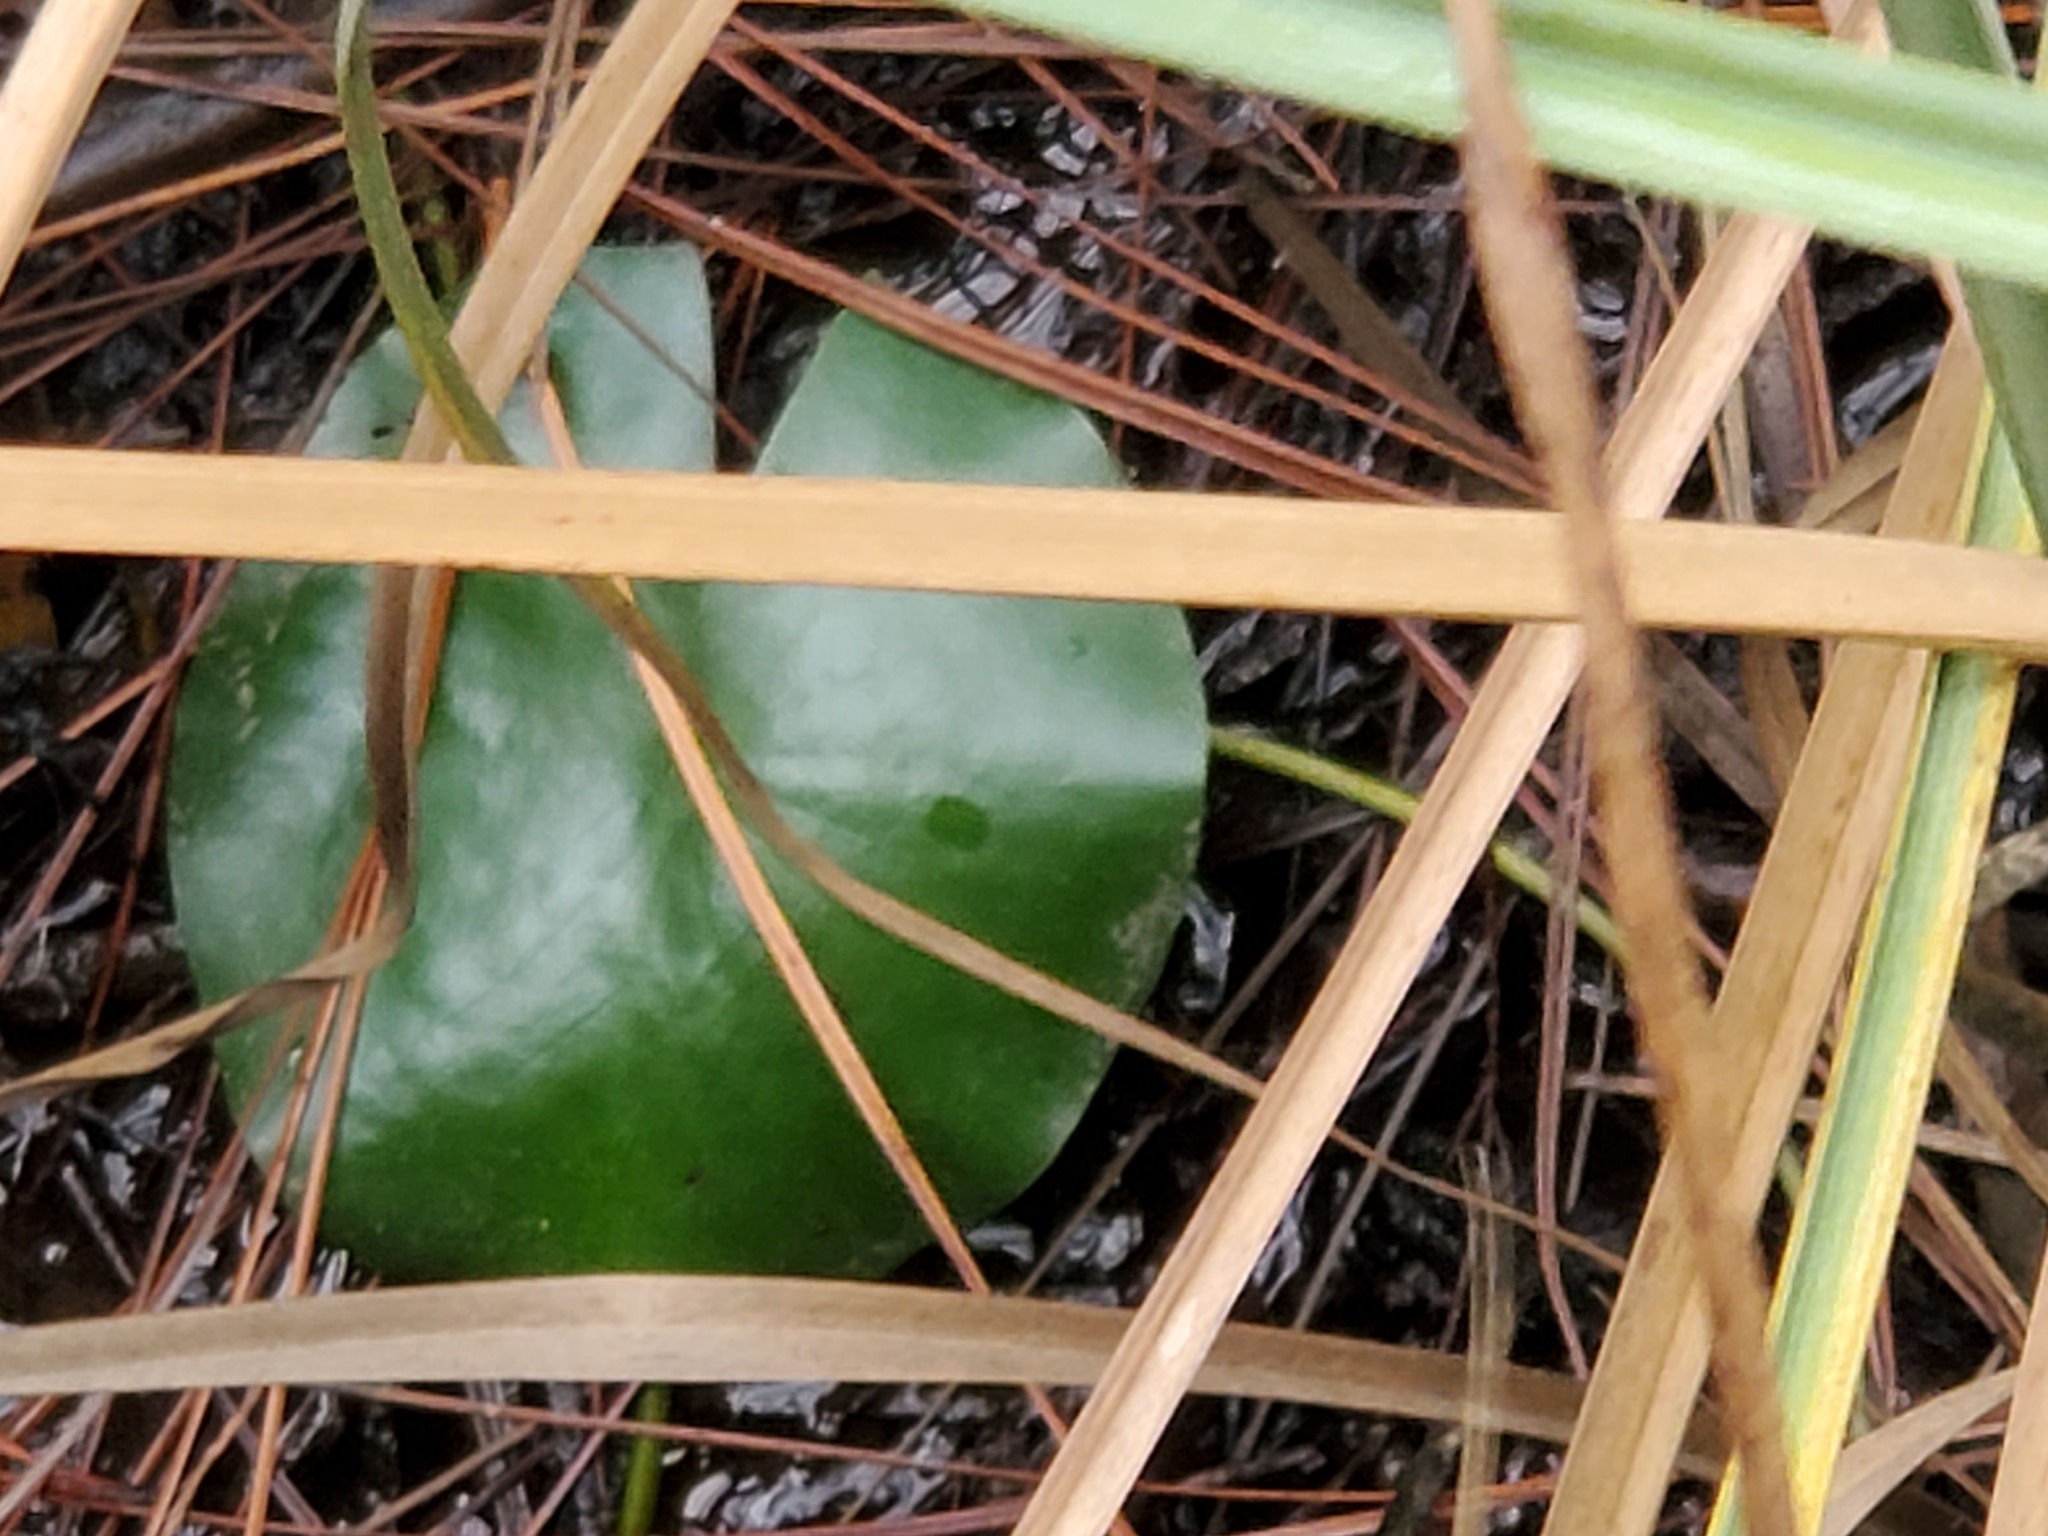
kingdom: Plantae
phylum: Tracheophyta
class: Magnoliopsida
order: Nymphaeales
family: Nymphaeaceae
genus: Nymphaea
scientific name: Nymphaea odorata
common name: Fragrant water-lily
